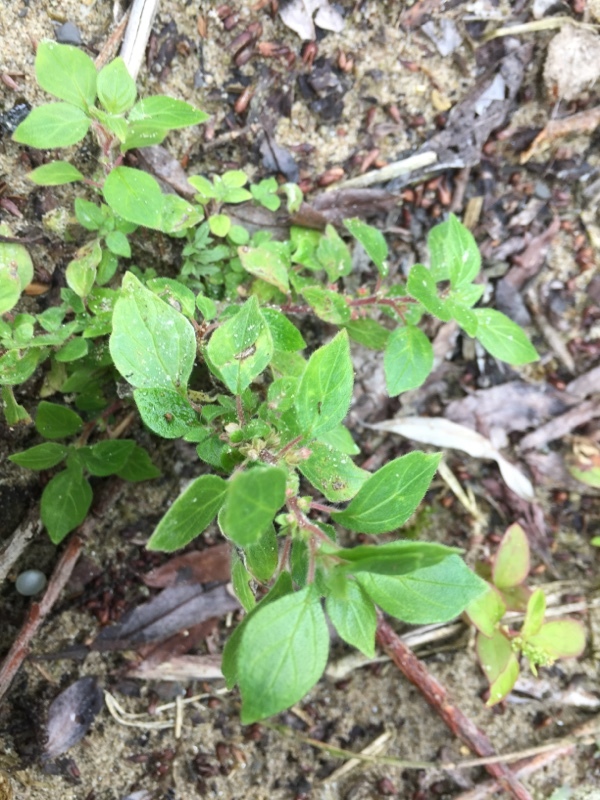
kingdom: Plantae
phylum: Tracheophyta
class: Magnoliopsida
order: Rosales
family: Urticaceae
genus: Parietaria
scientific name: Parietaria judaica
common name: Pellitory-of-the-wall
